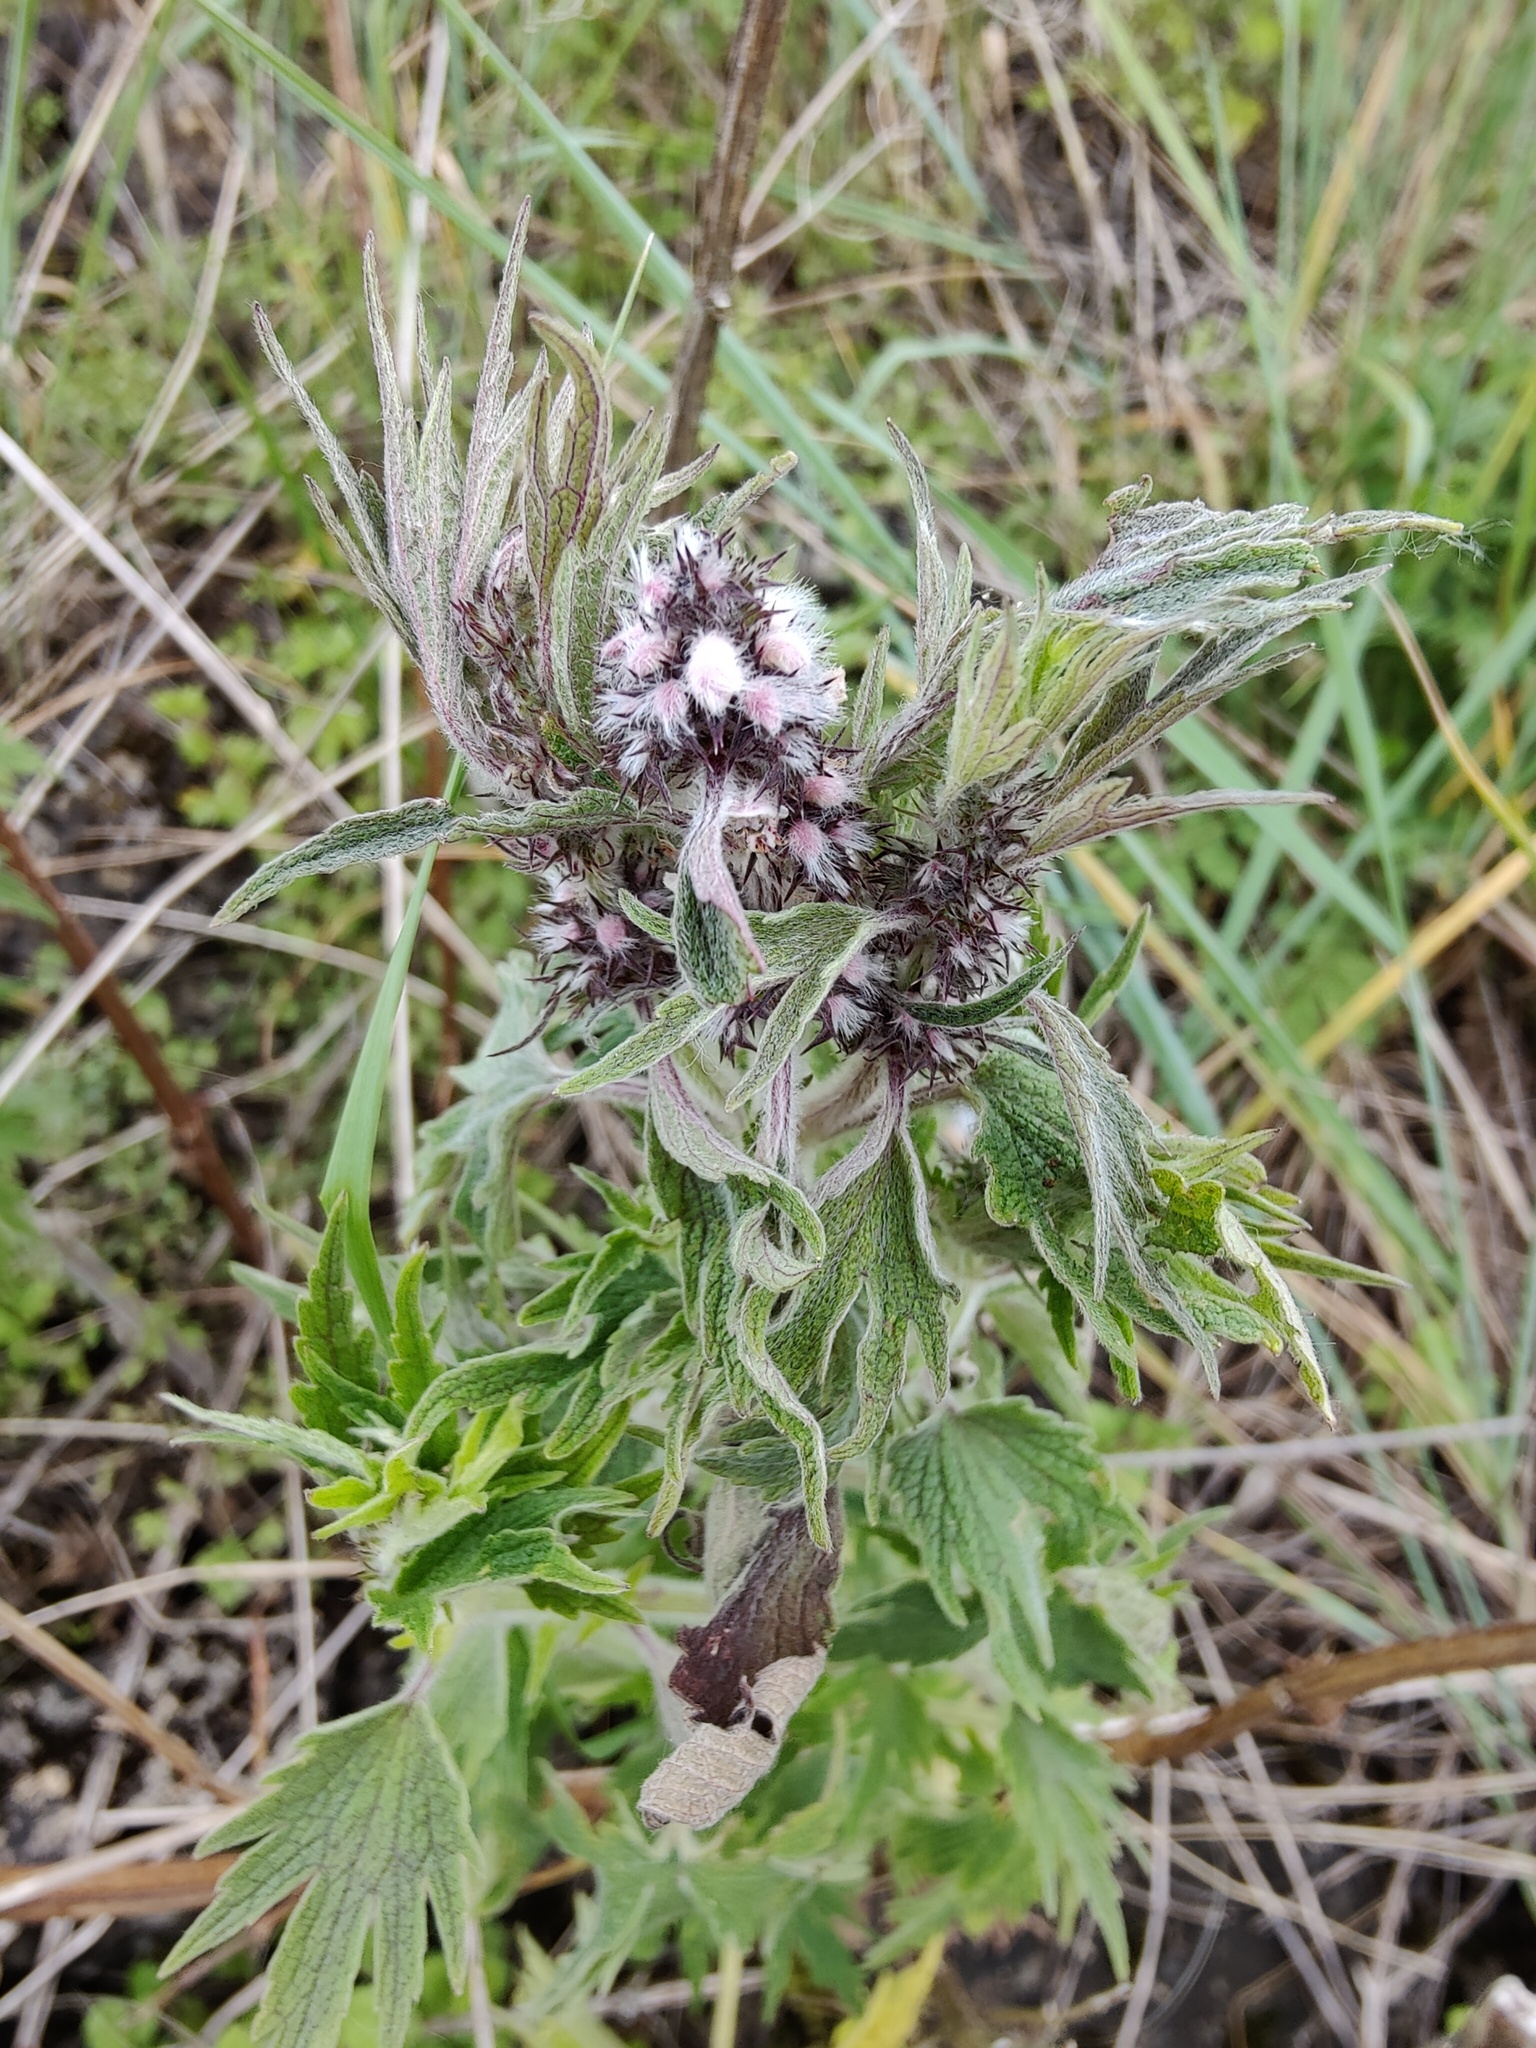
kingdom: Plantae
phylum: Tracheophyta
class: Magnoliopsida
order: Lamiales
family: Lamiaceae
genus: Leonurus
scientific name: Leonurus quinquelobatus
